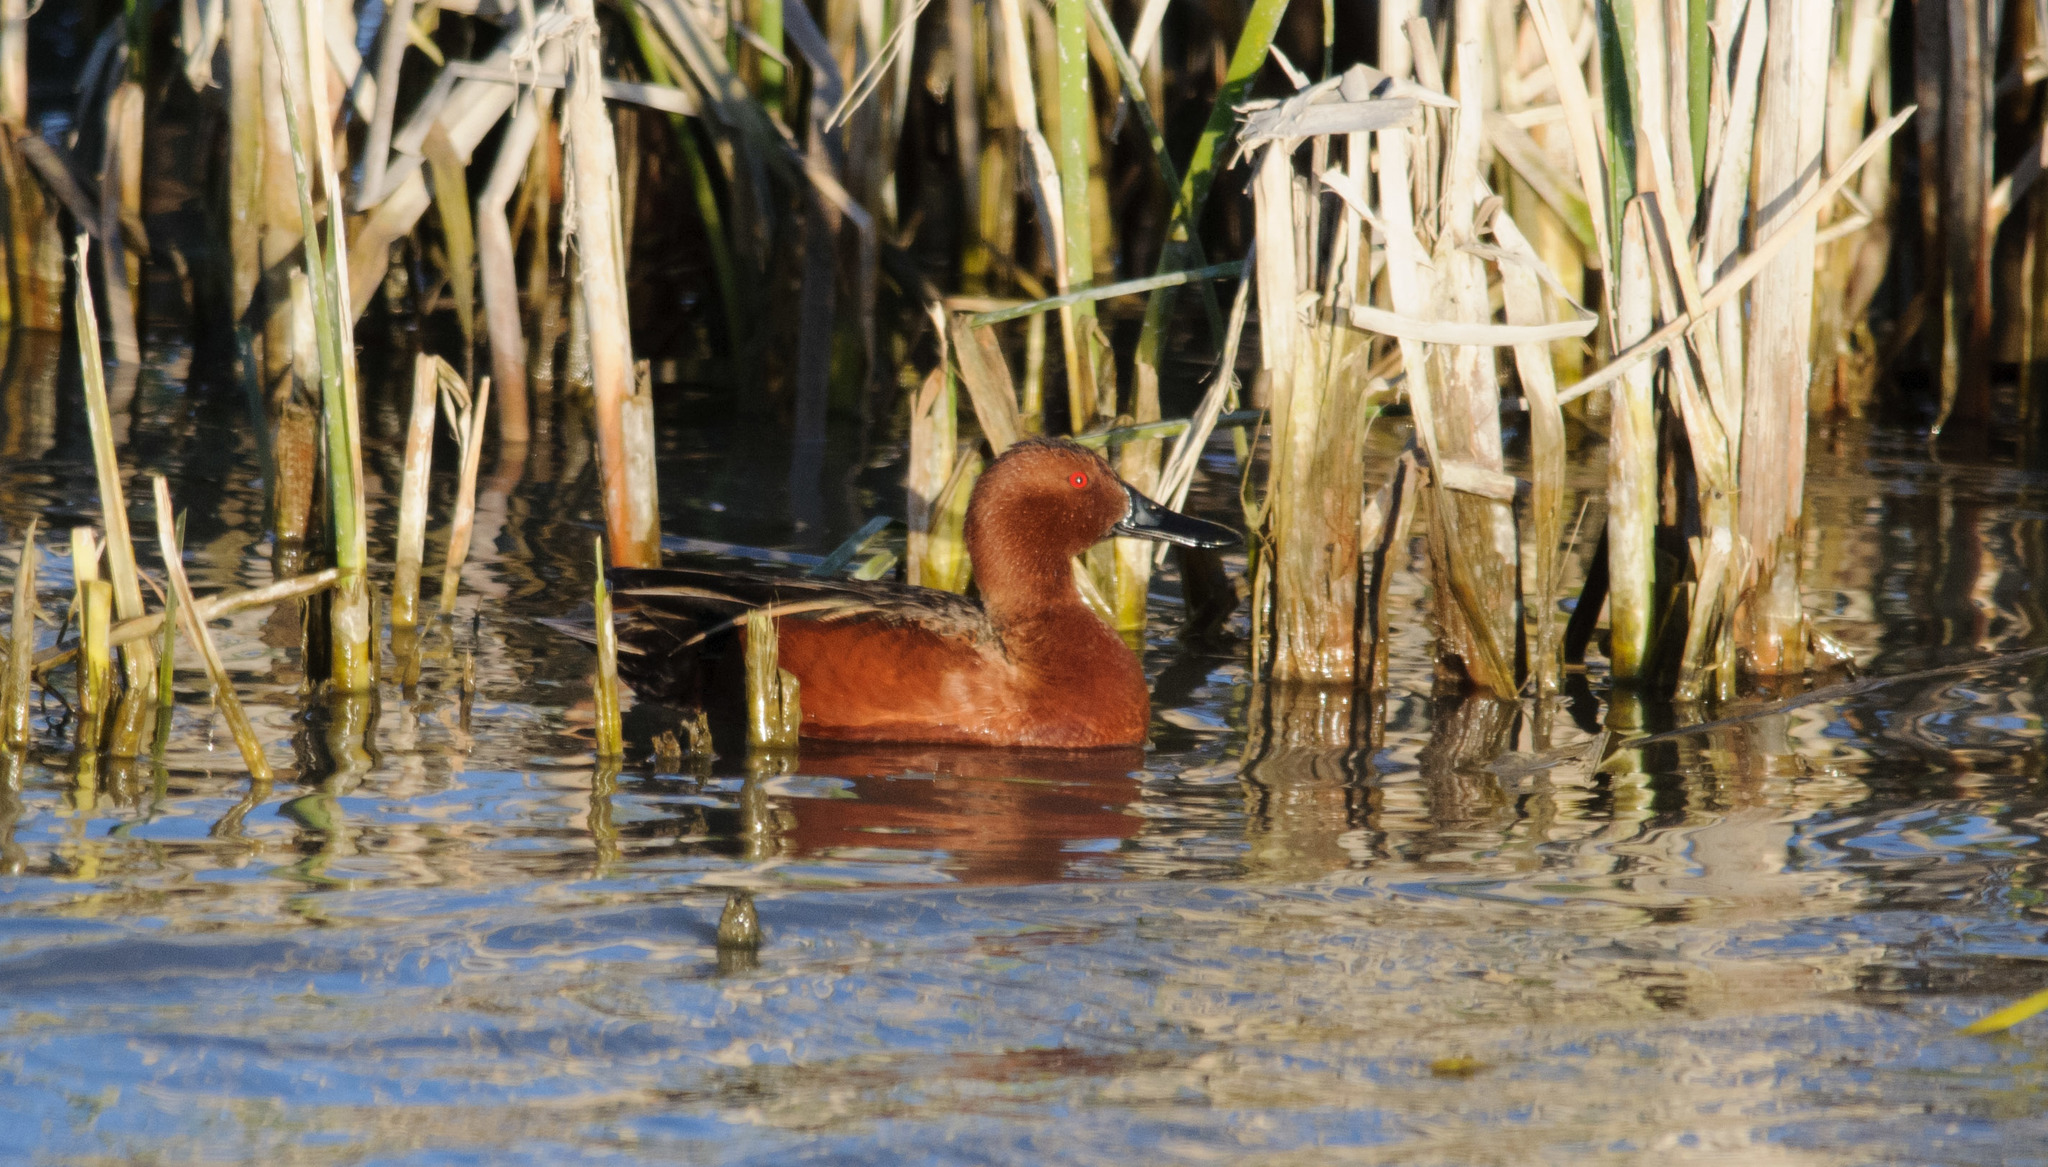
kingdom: Animalia
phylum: Chordata
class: Aves
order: Anseriformes
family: Anatidae
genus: Spatula
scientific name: Spatula cyanoptera
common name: Cinnamon teal
